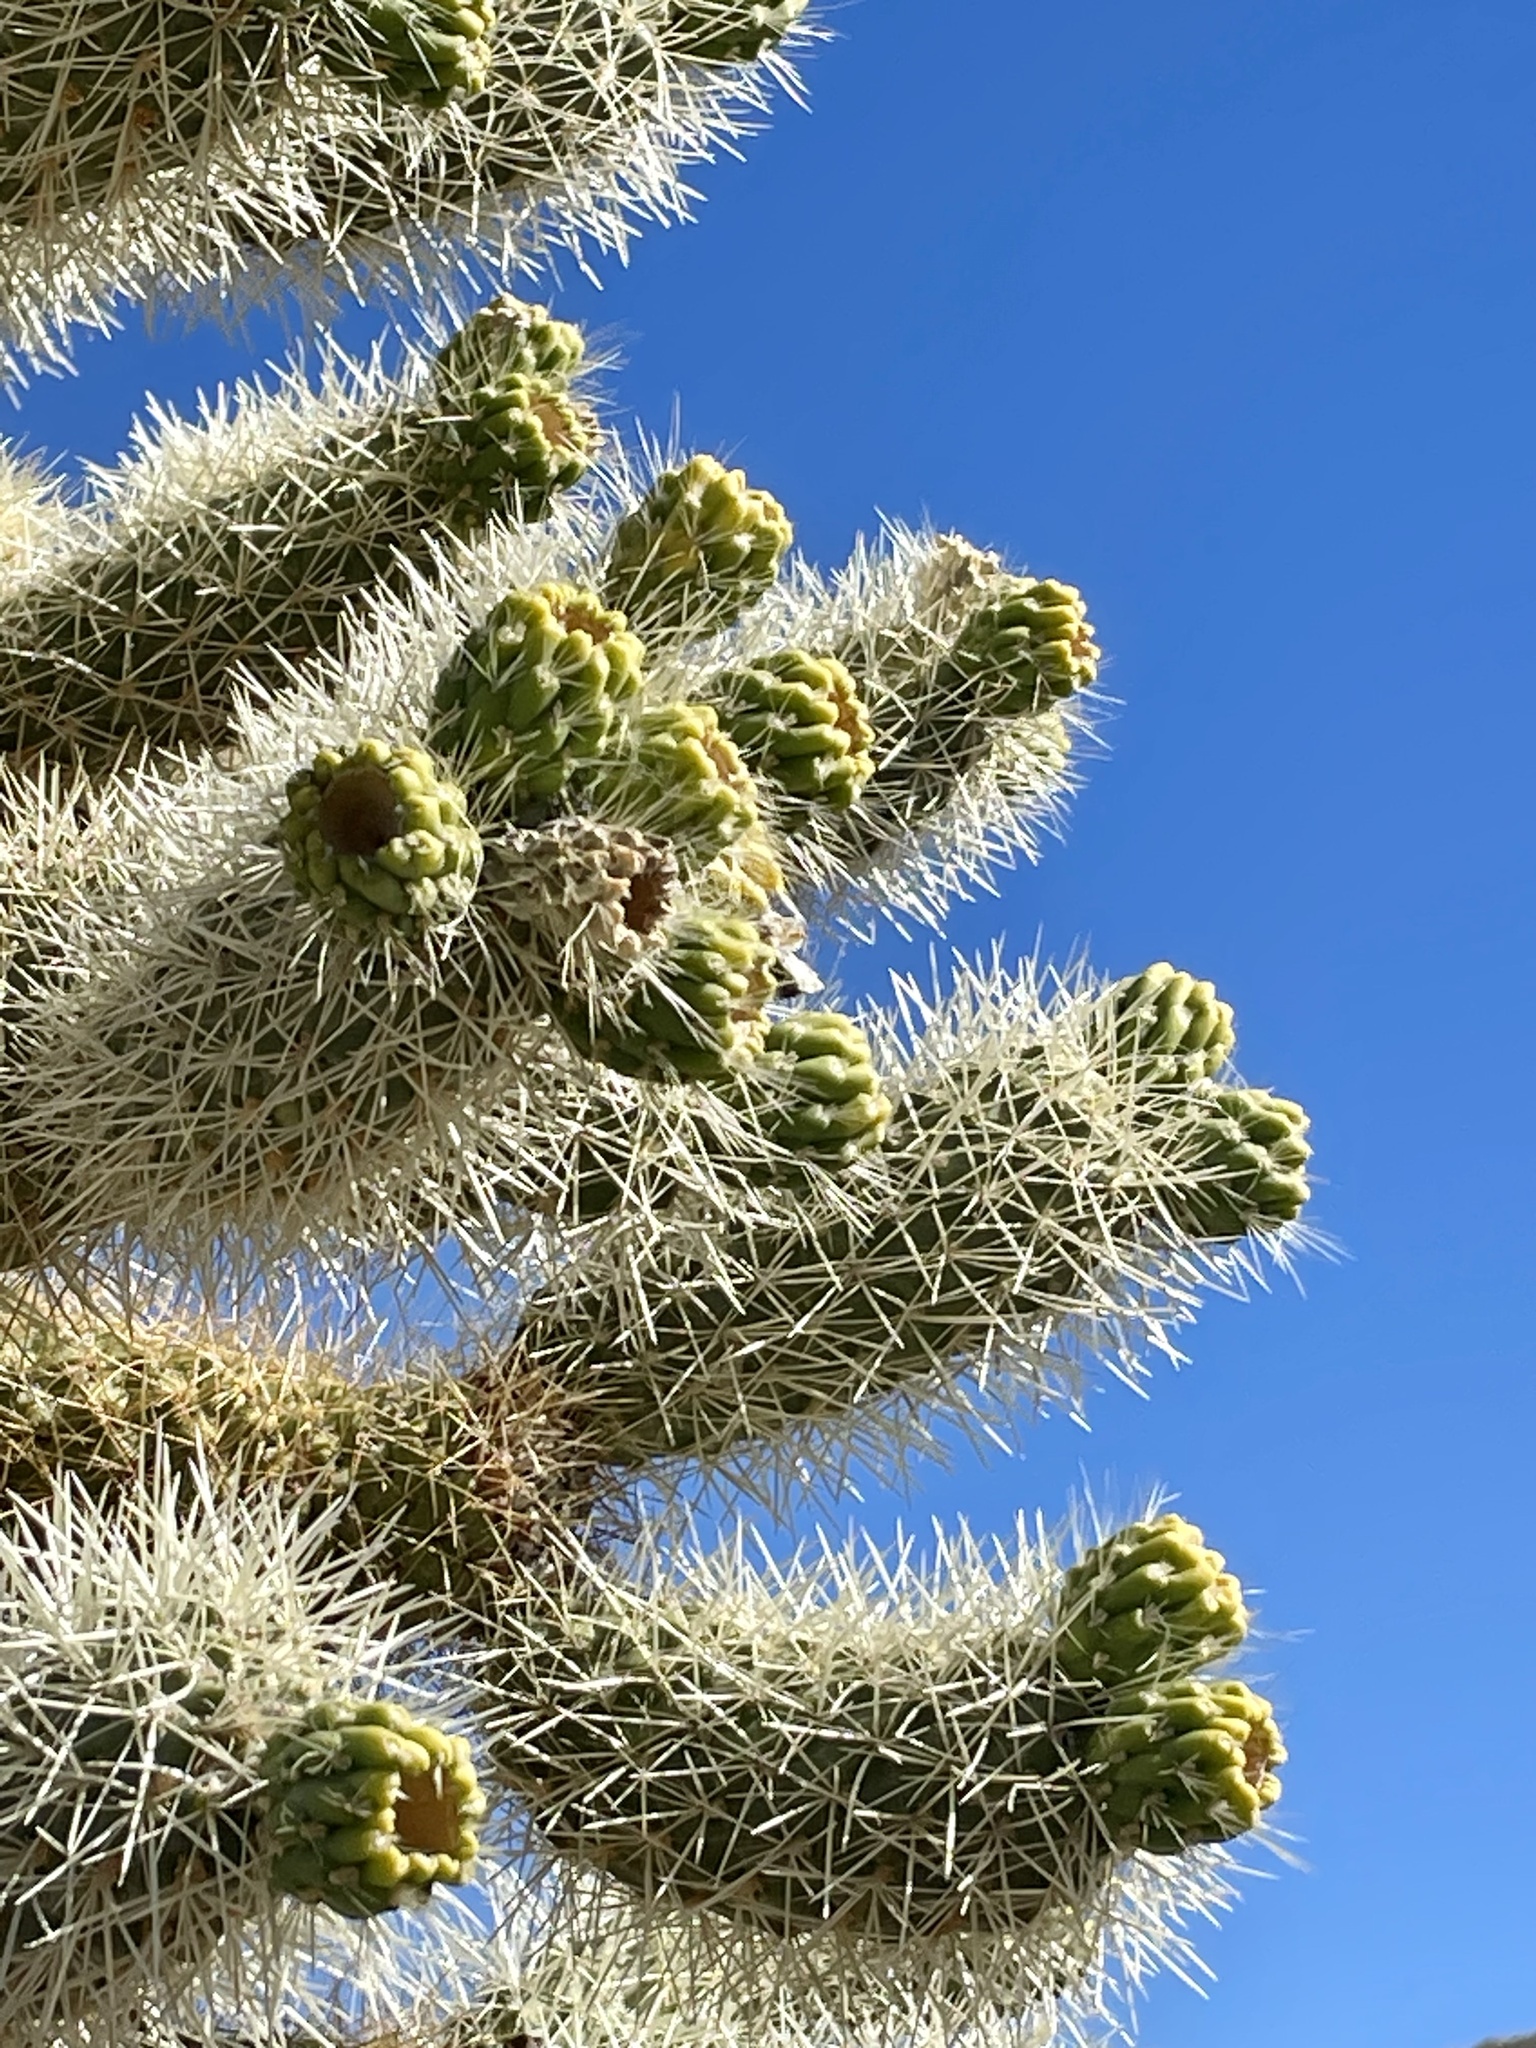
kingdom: Plantae
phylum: Tracheophyta
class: Magnoliopsida
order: Caryophyllales
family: Cactaceae
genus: Cylindropuntia
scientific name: Cylindropuntia fosbergii
